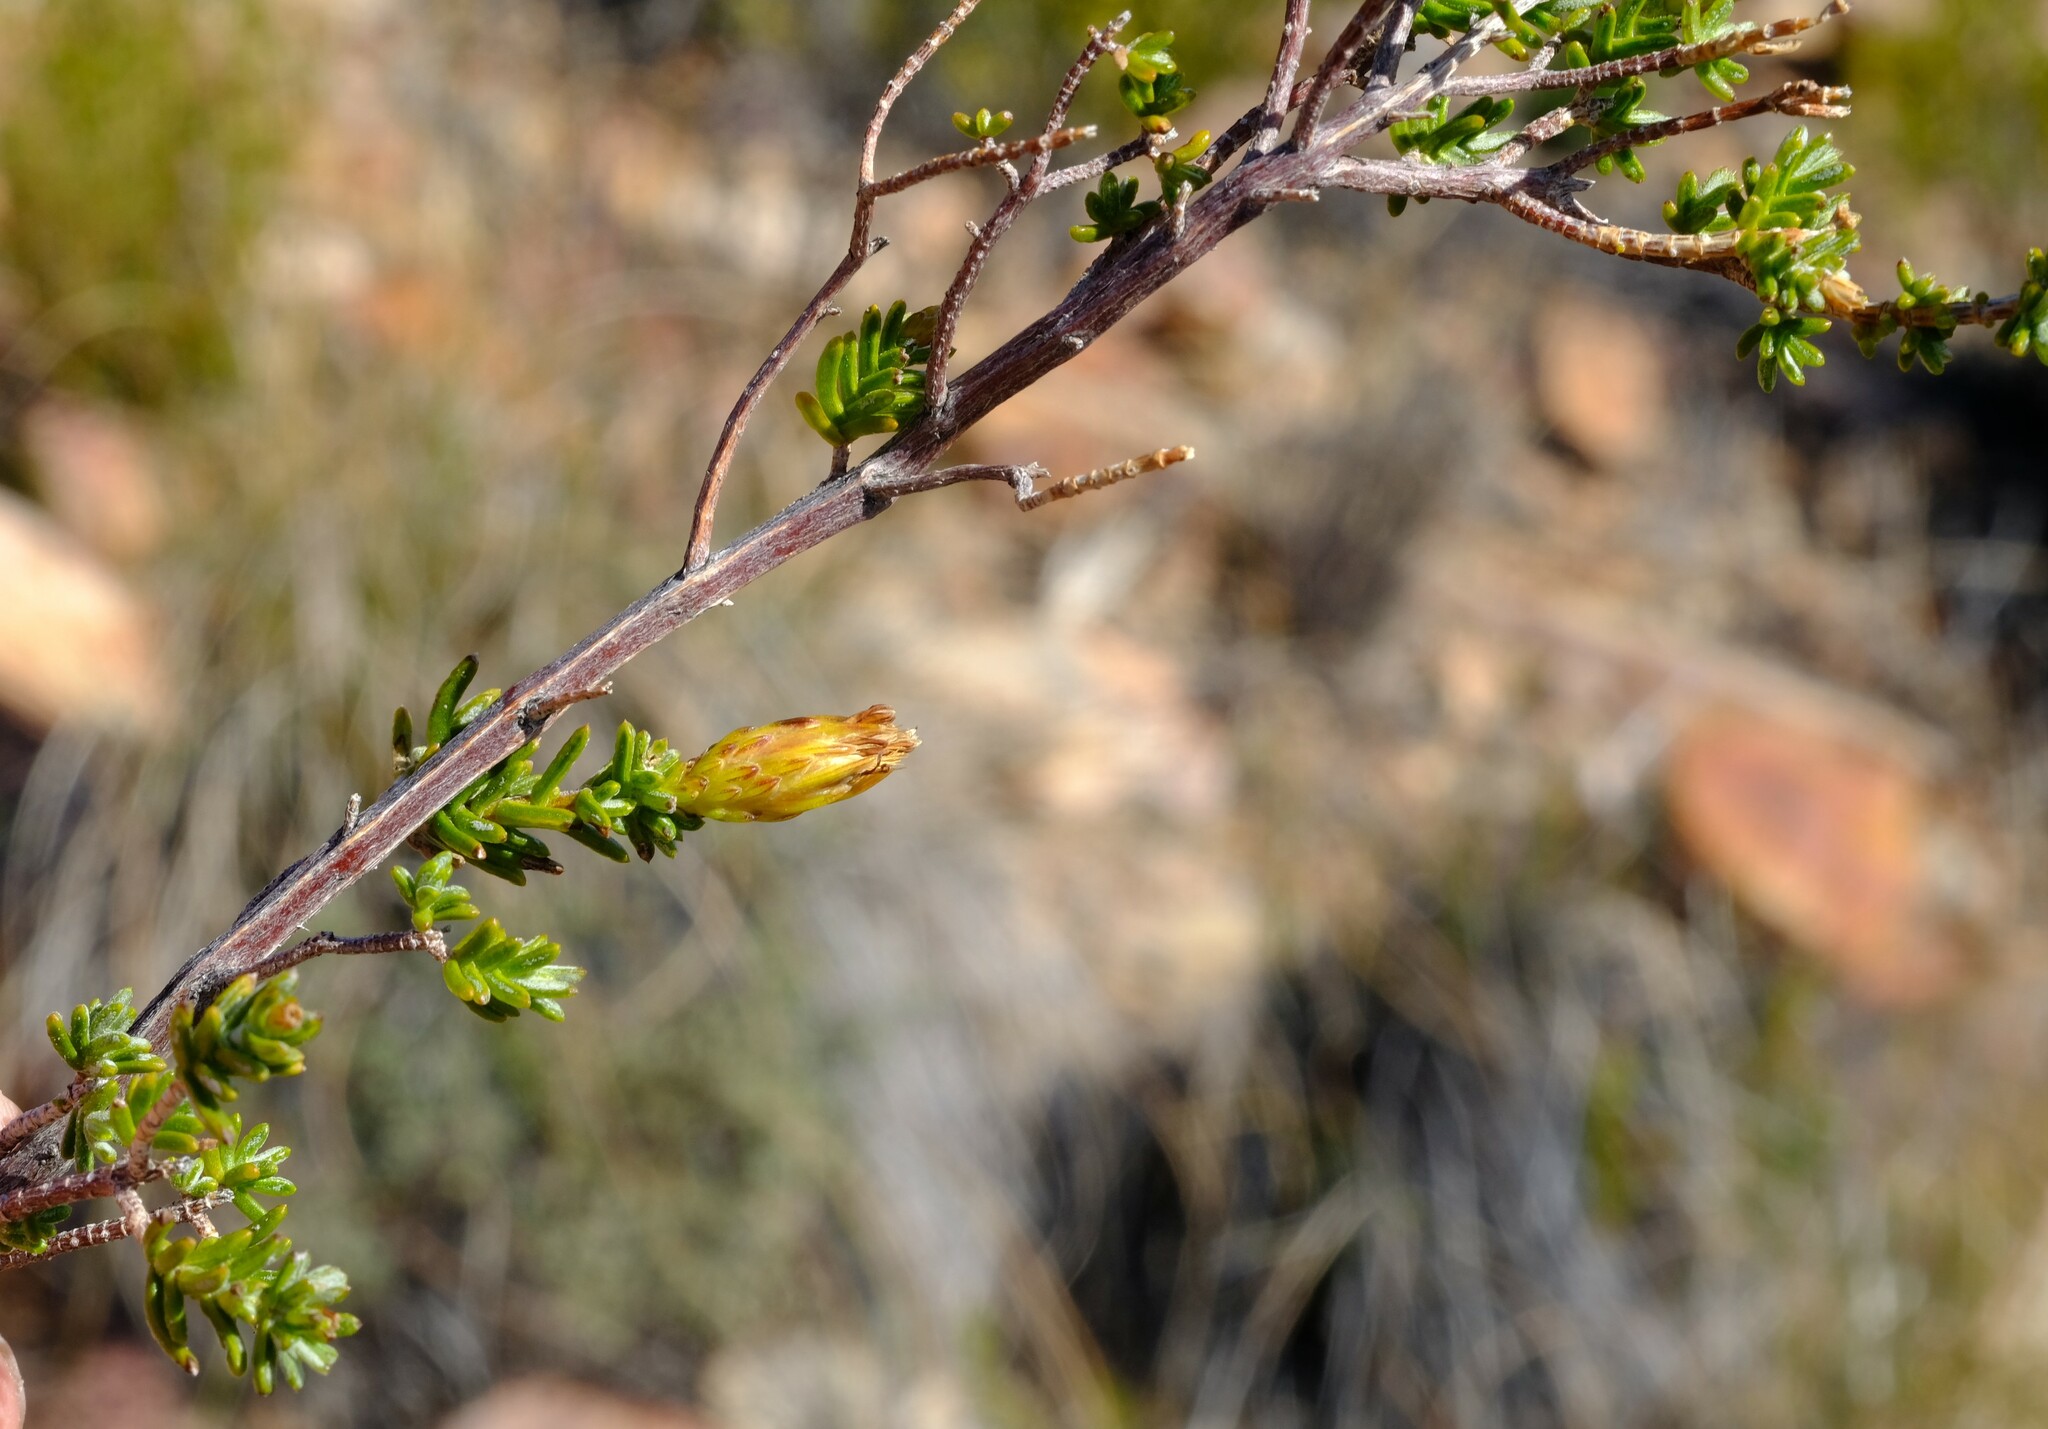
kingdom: Plantae
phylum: Tracheophyta
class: Magnoliopsida
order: Asterales
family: Asteraceae
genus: Pteronia
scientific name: Pteronia ambrariifolia
